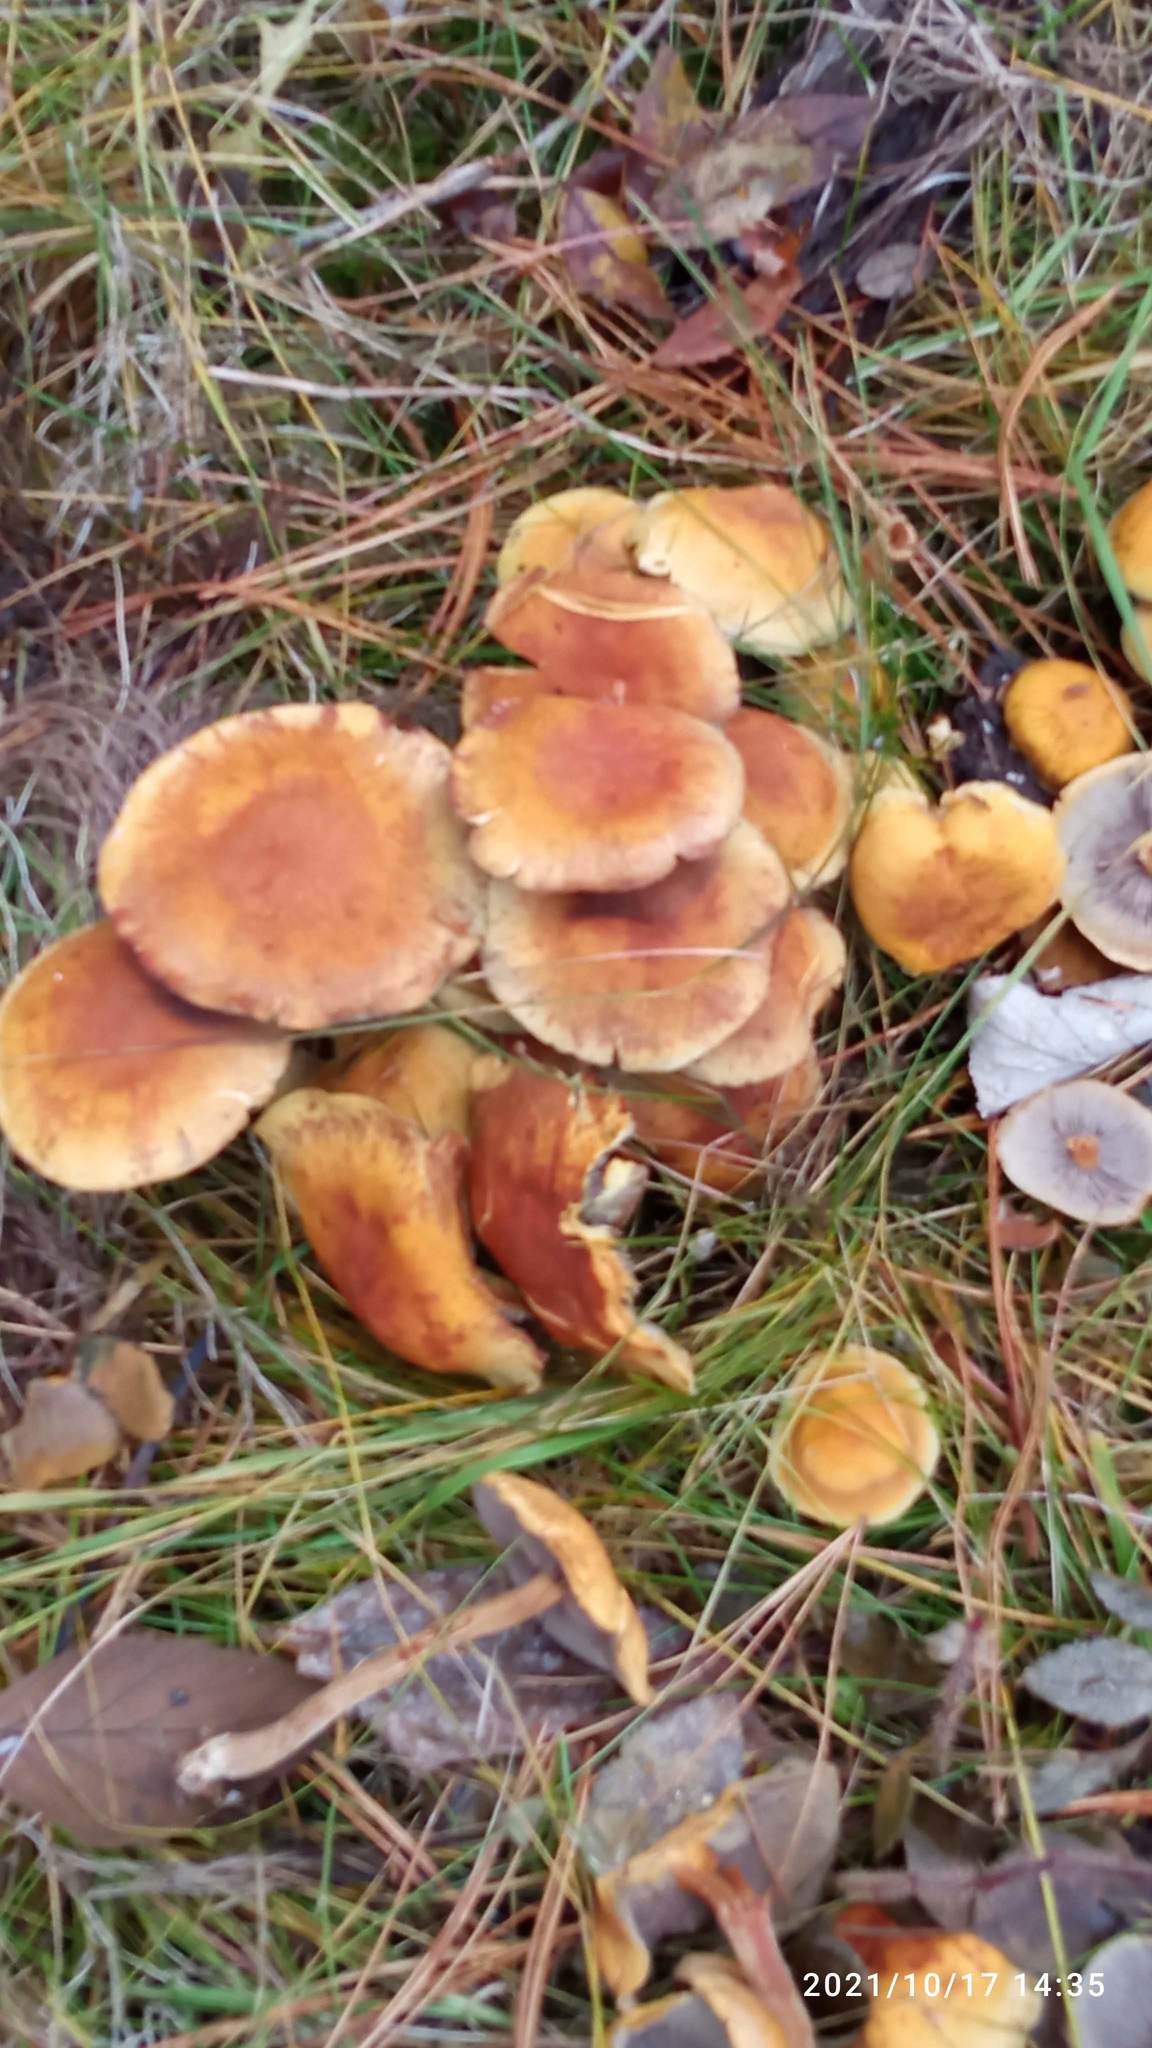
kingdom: Fungi
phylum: Basidiomycota
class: Agaricomycetes
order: Agaricales
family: Strophariaceae
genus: Hypholoma
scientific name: Hypholoma capnoides
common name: Conifer tuft
